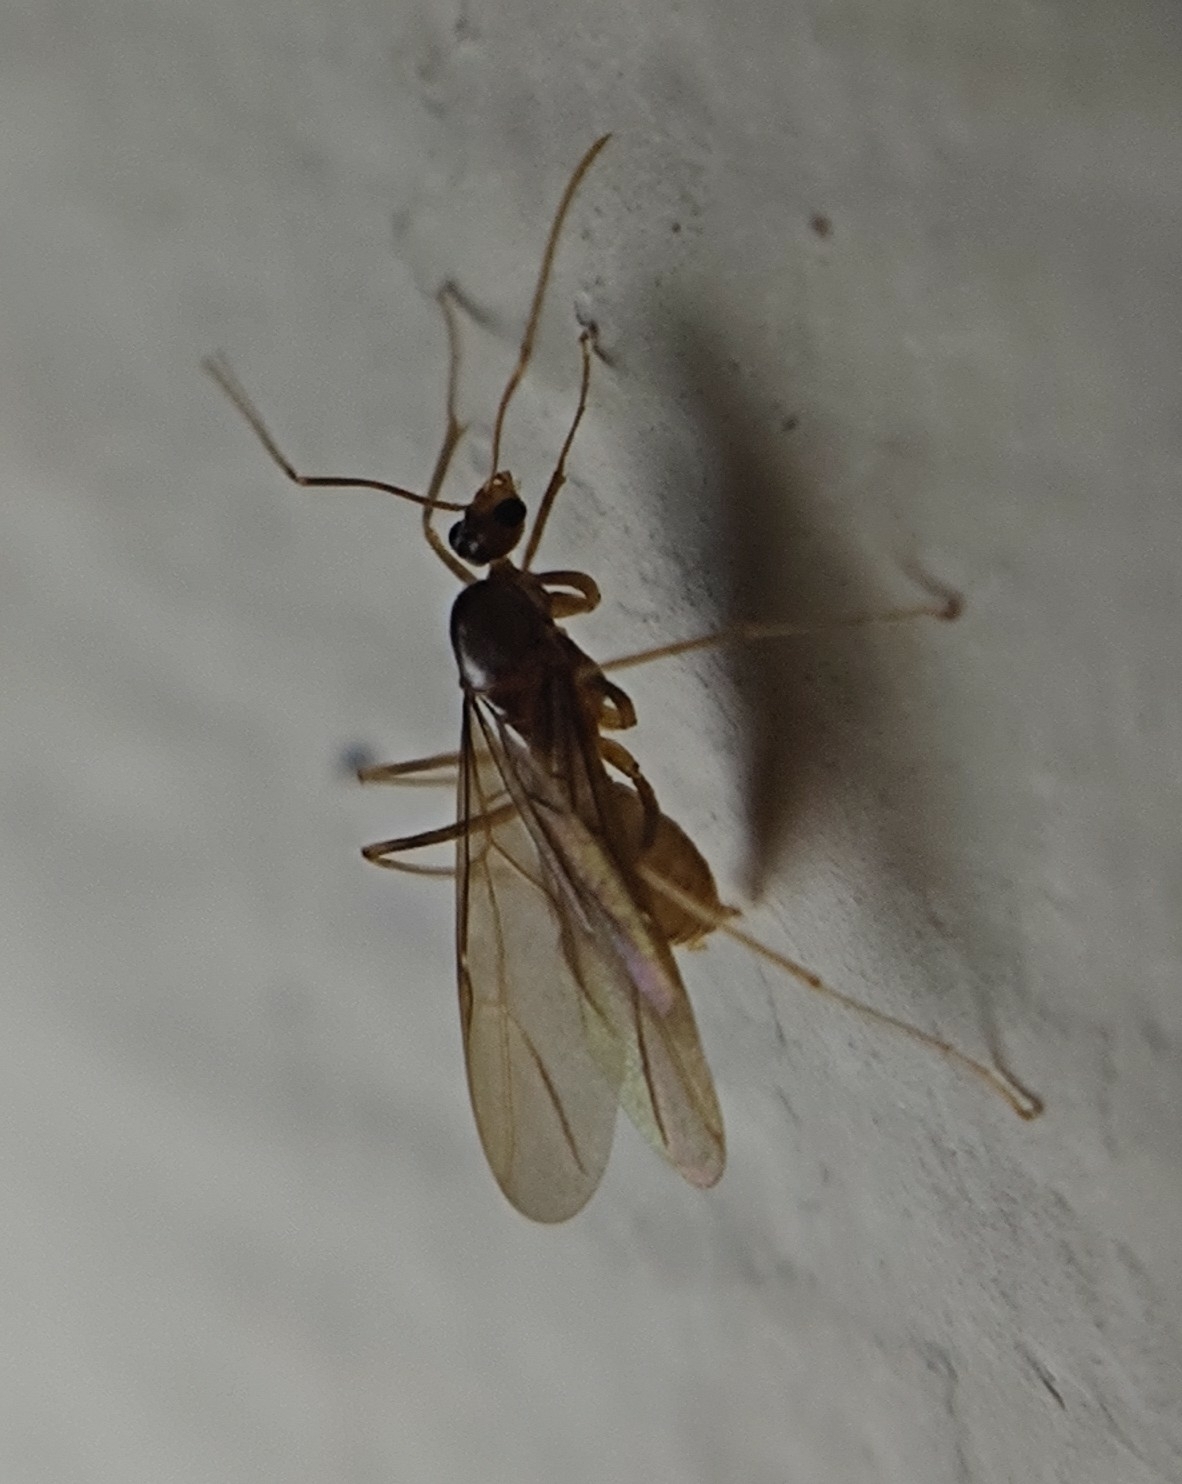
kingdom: Animalia
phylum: Arthropoda
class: Insecta
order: Hymenoptera
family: Formicidae
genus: Anoplolepis
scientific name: Anoplolepis gracilipes
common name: Ant
